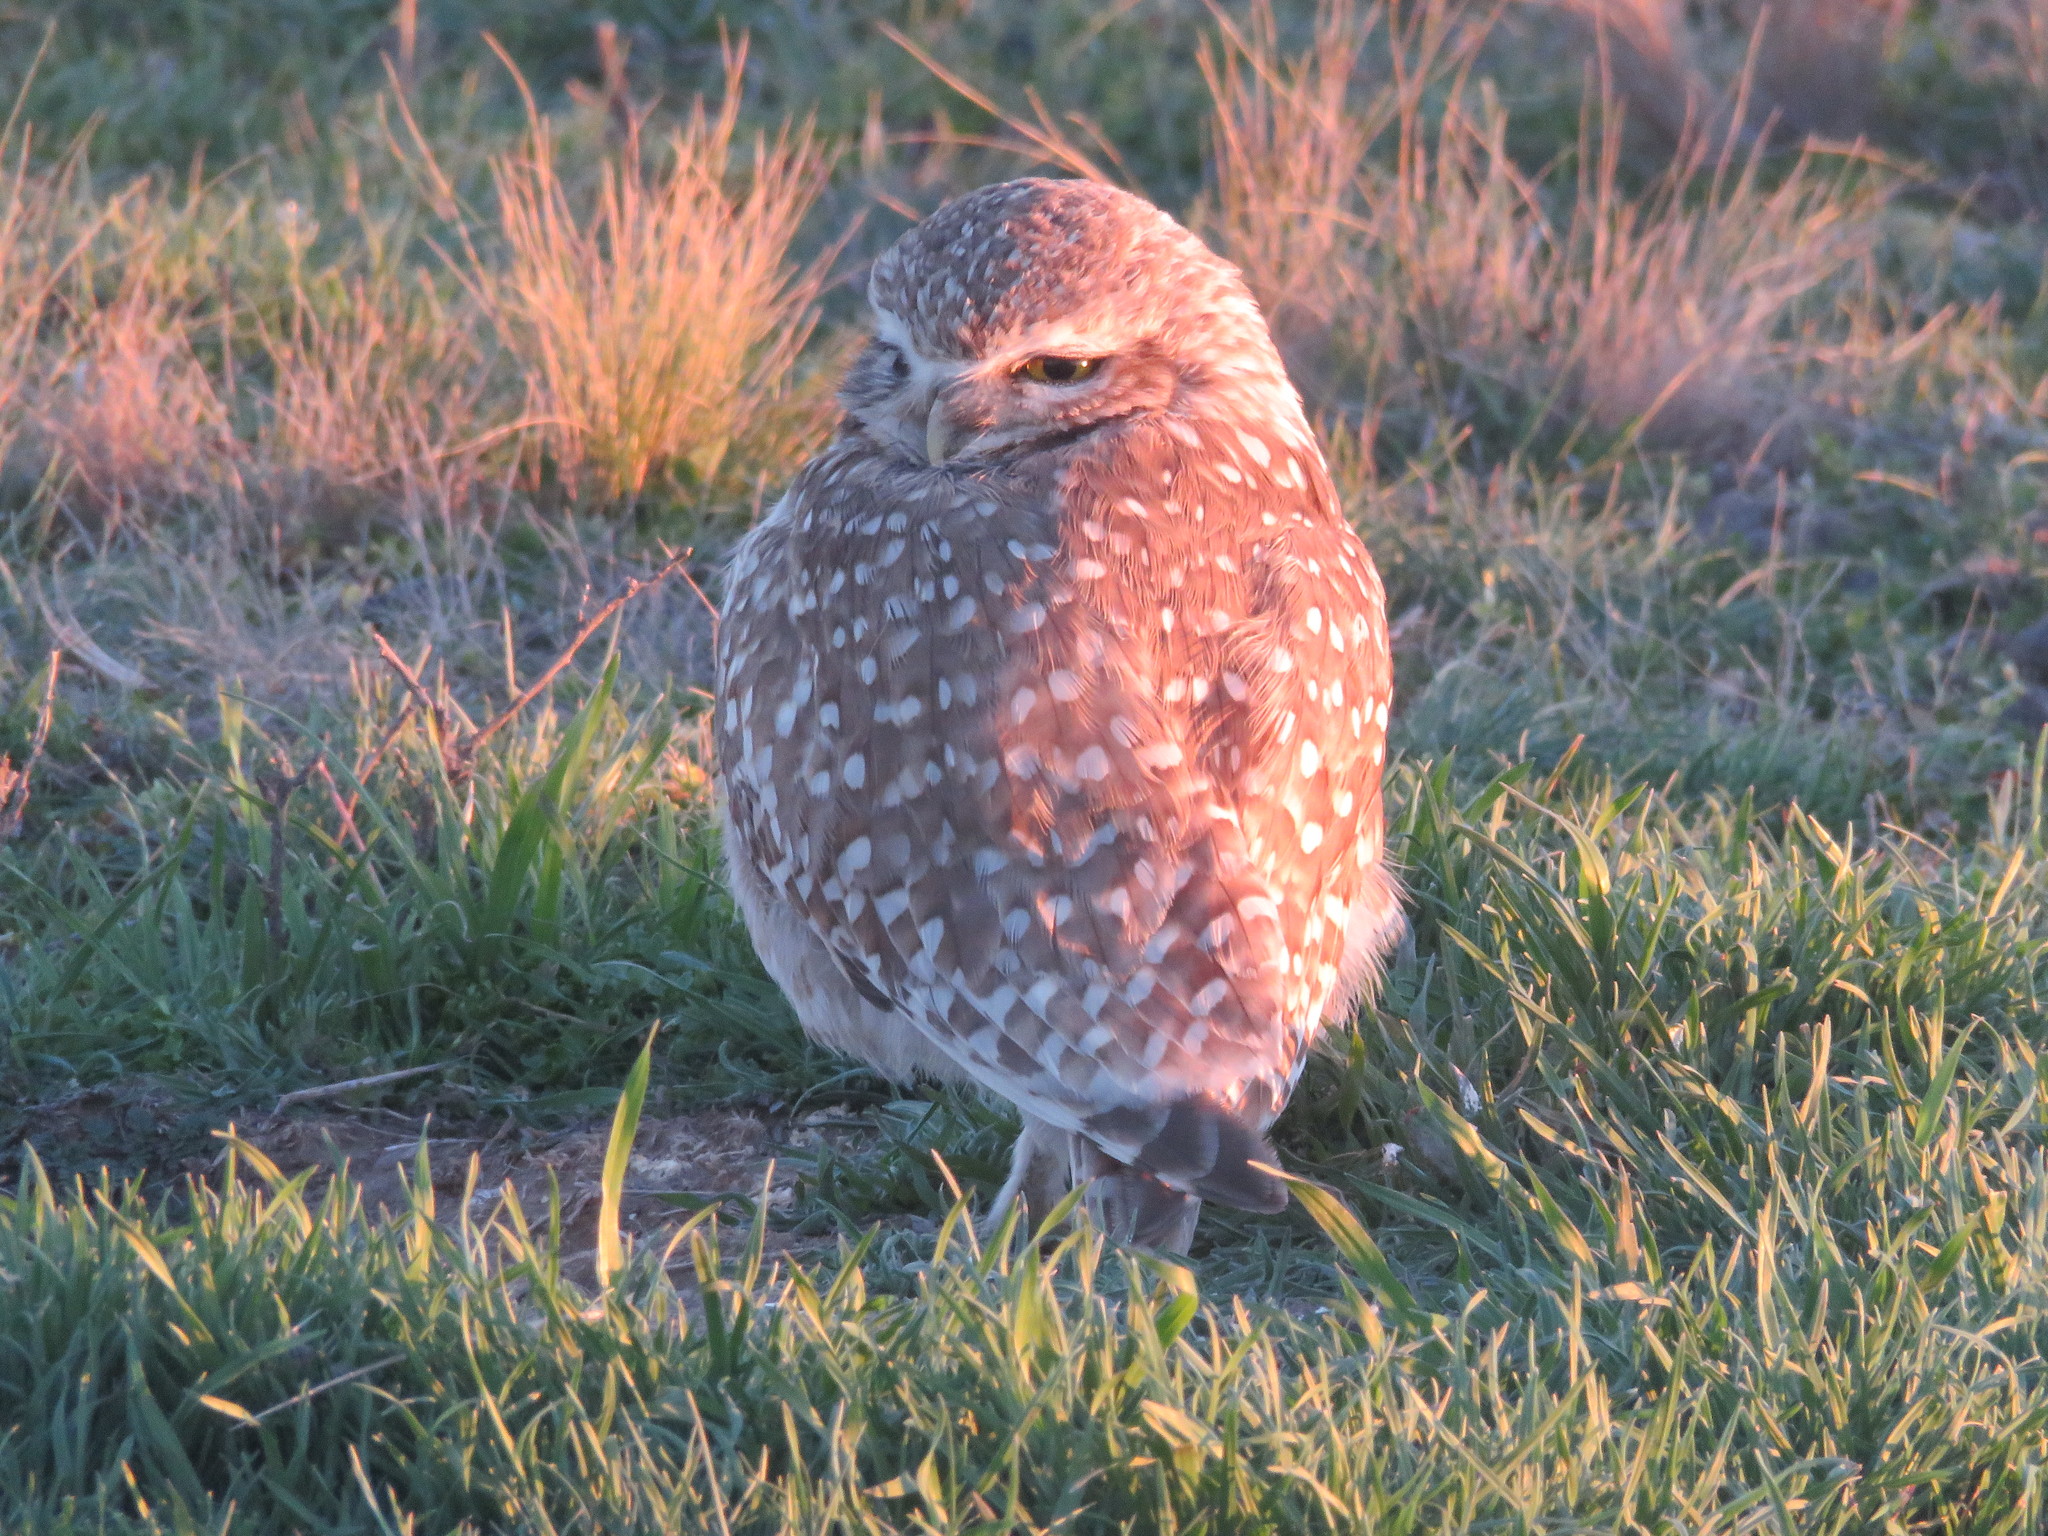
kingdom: Animalia
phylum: Chordata
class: Aves
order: Strigiformes
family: Strigidae
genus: Athene
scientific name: Athene cunicularia
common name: Burrowing owl
